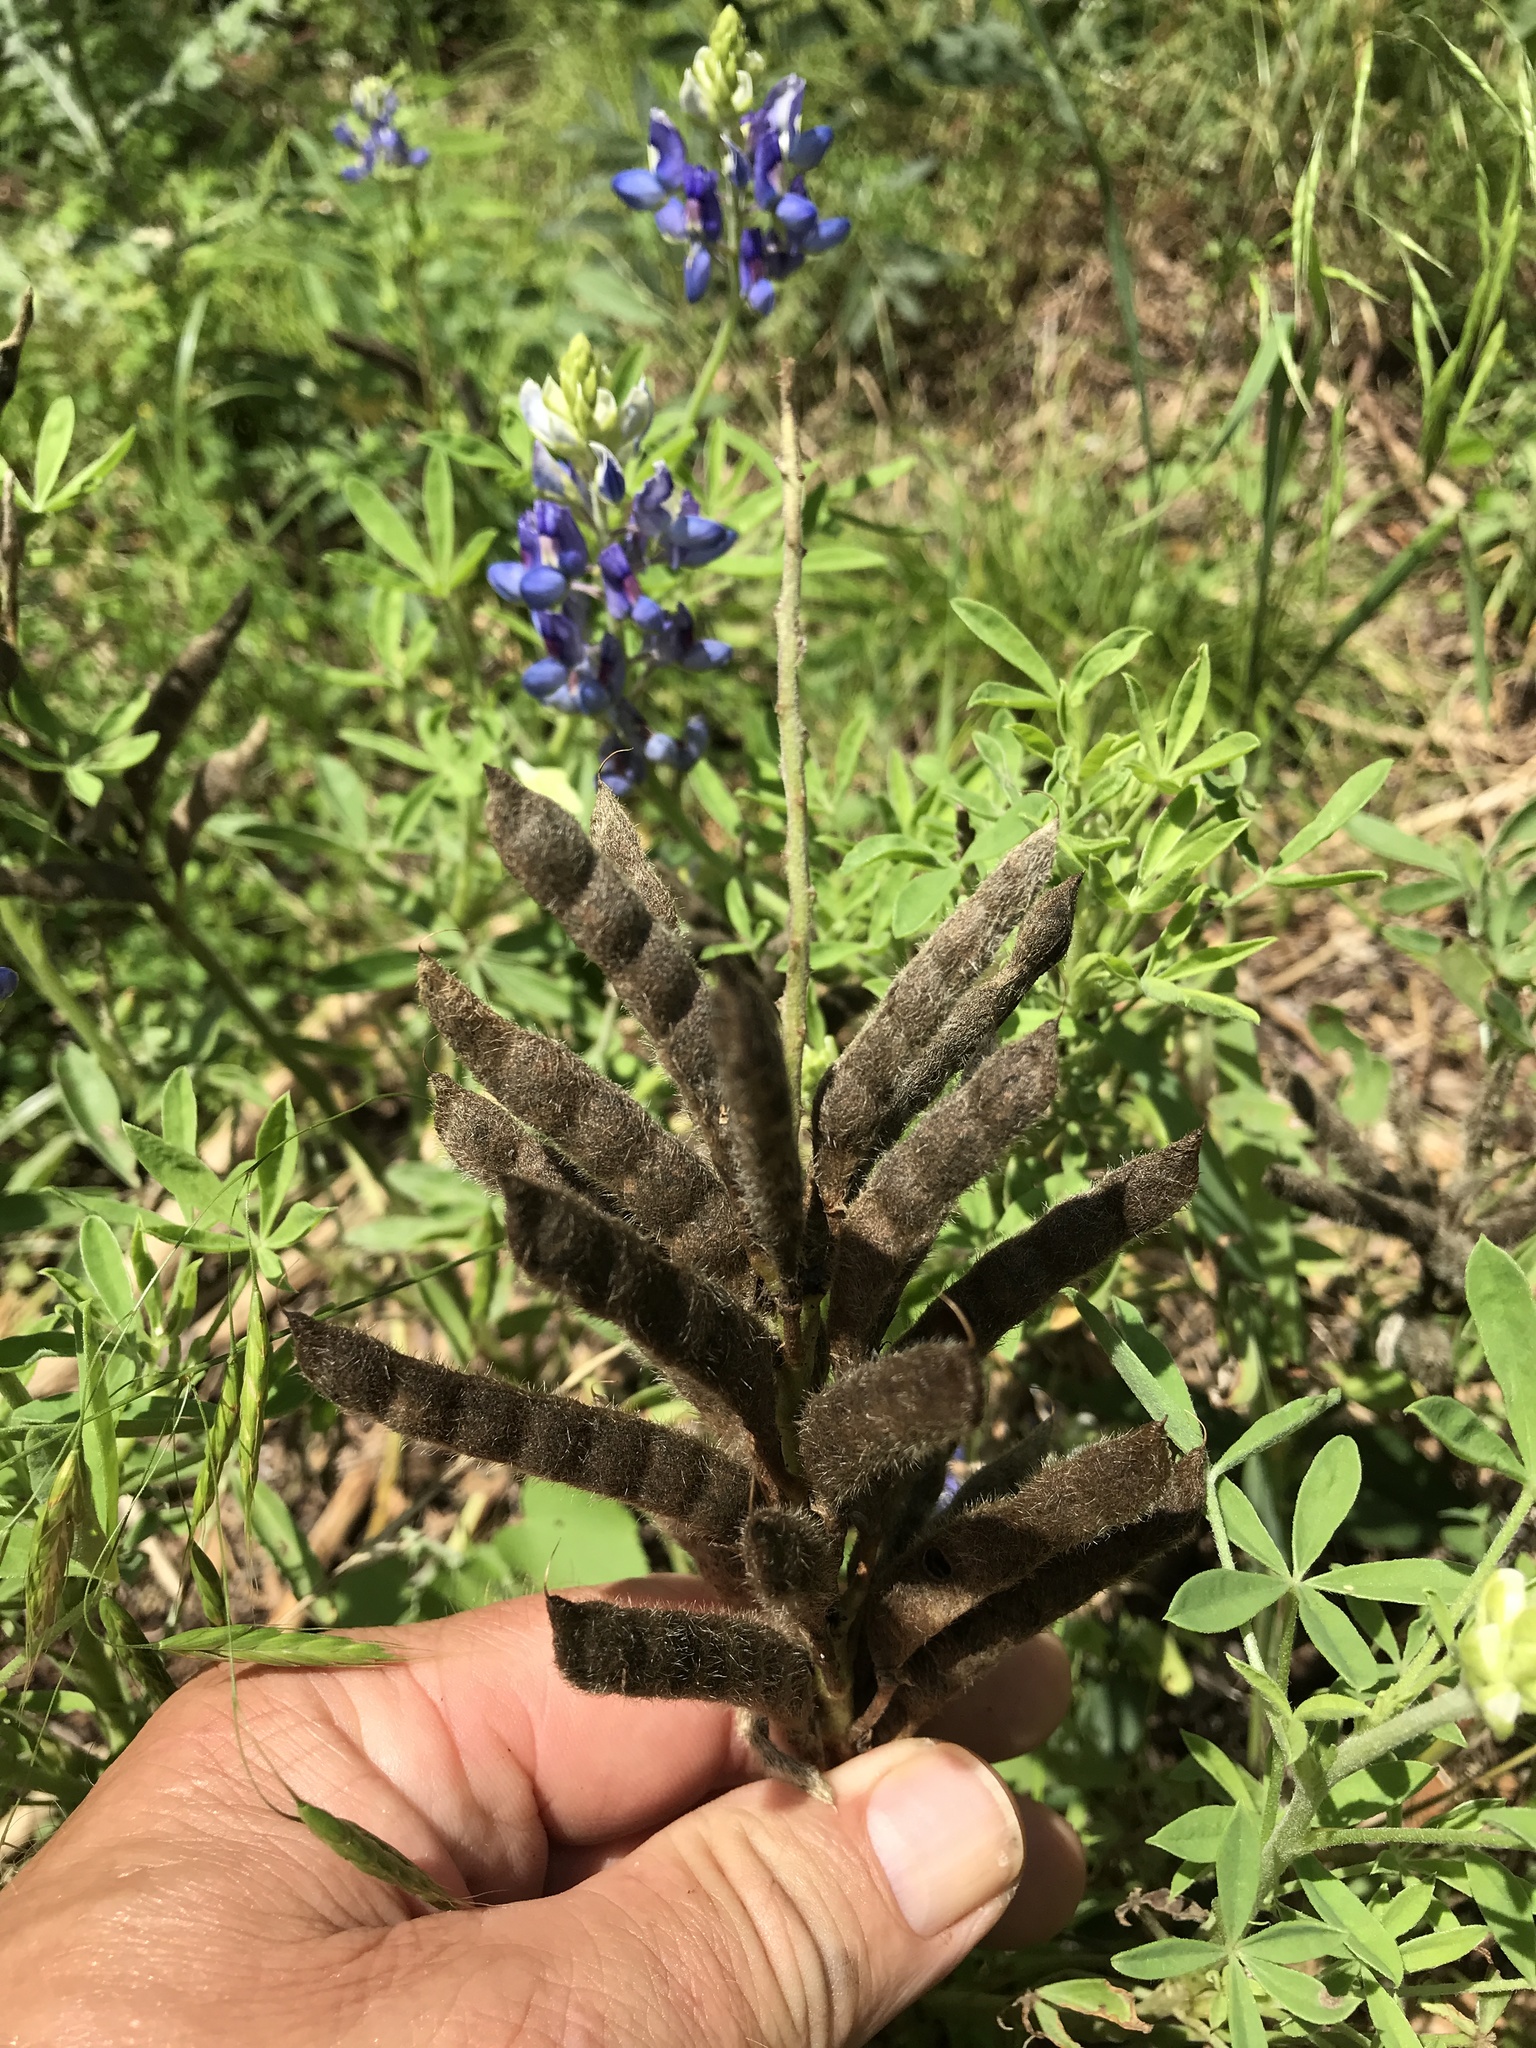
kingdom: Plantae
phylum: Tracheophyta
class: Magnoliopsida
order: Fabales
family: Fabaceae
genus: Lupinus
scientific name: Lupinus texensis
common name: Texas bluebonnet
